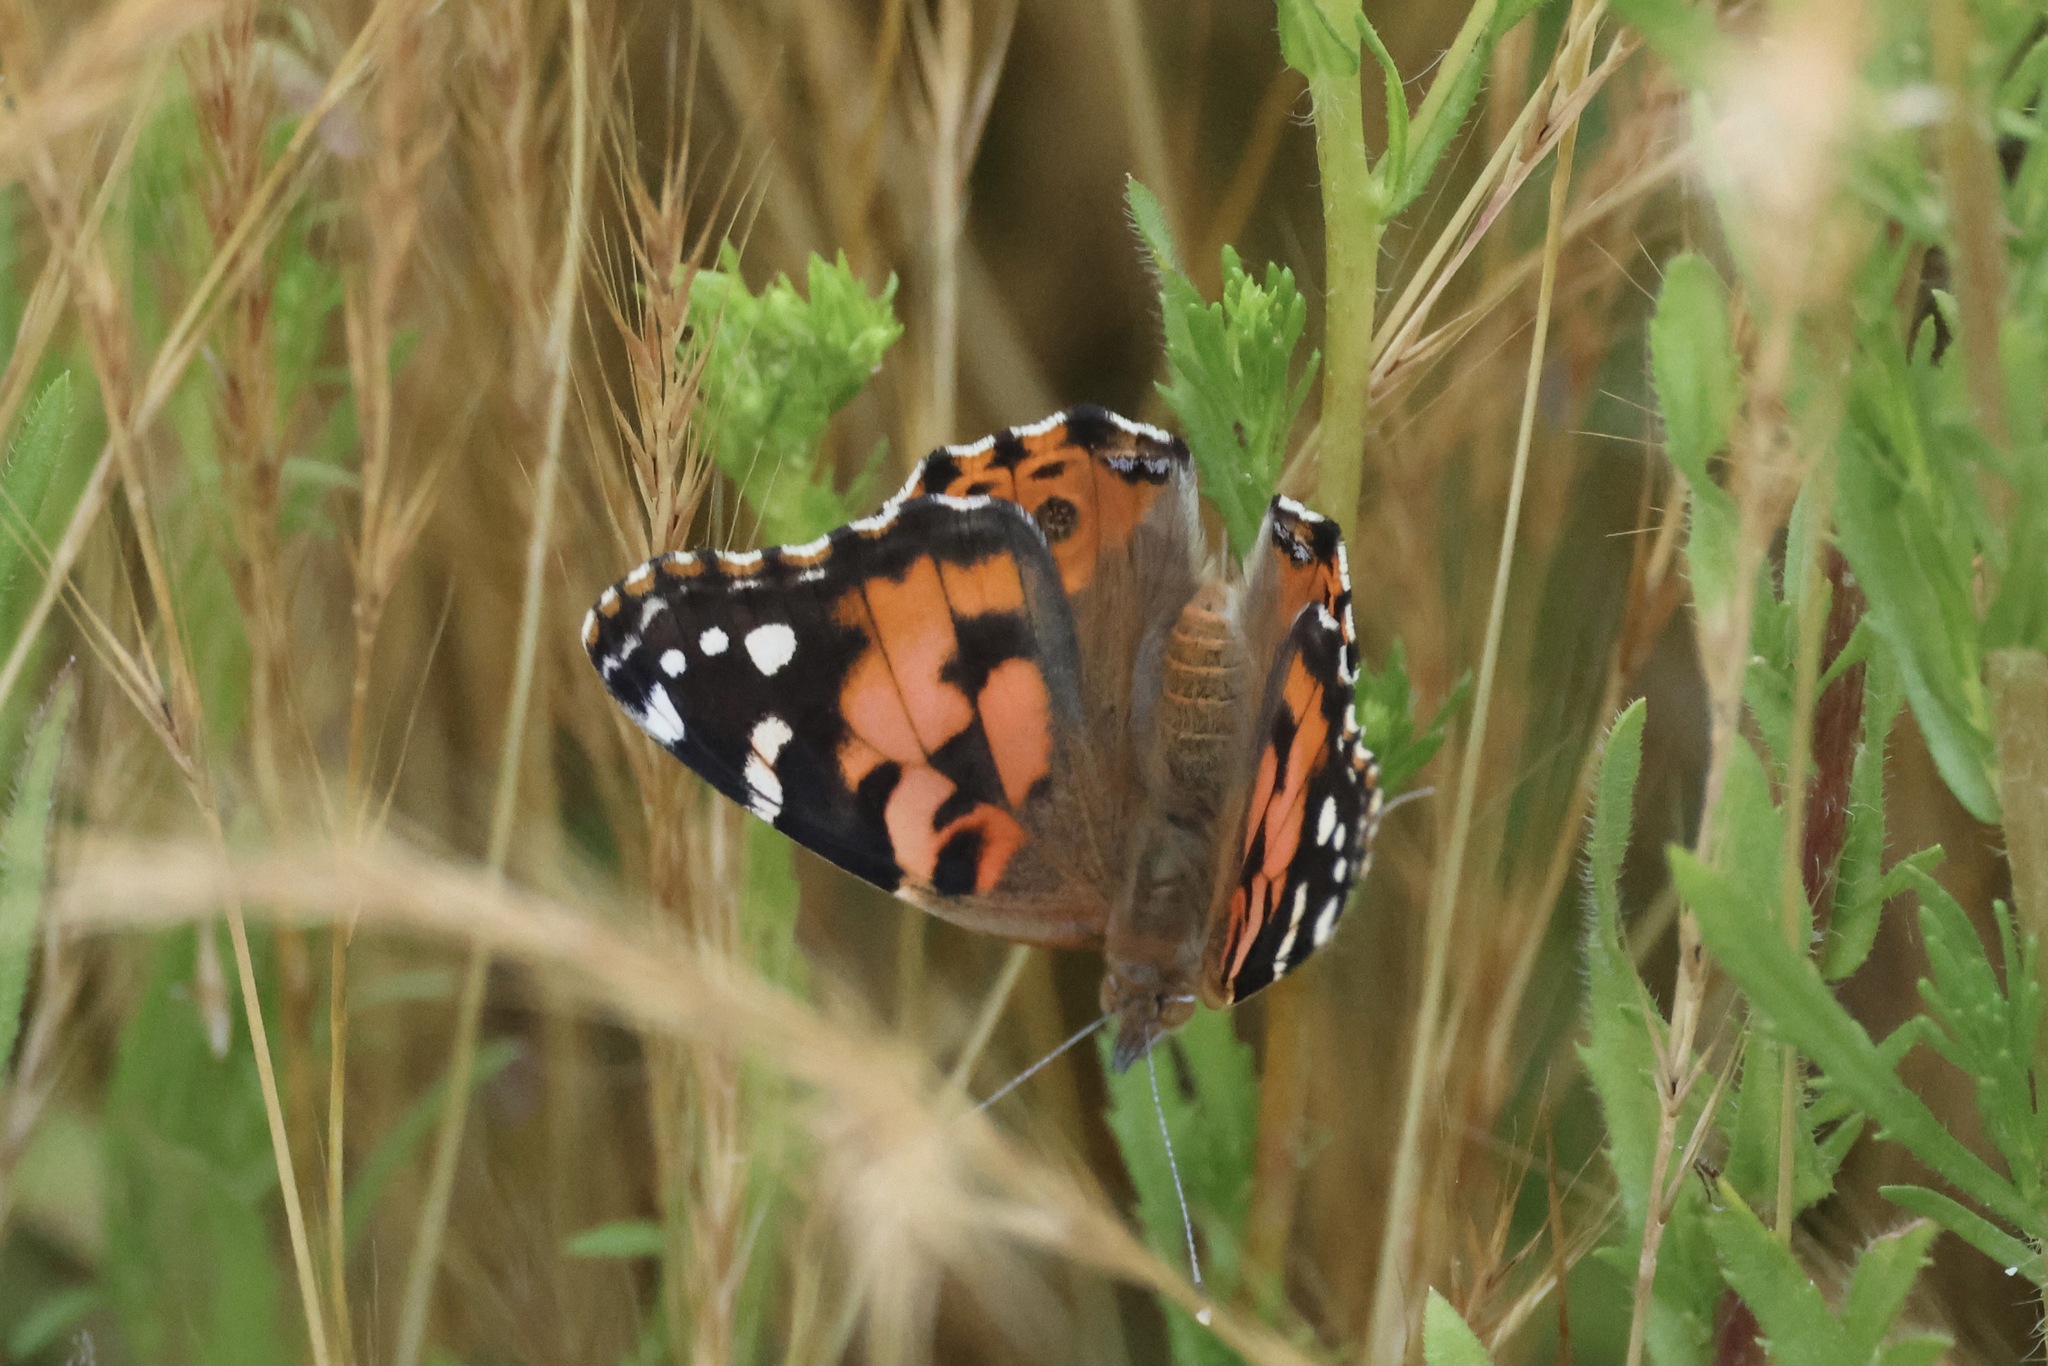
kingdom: Animalia
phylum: Arthropoda
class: Insecta
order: Lepidoptera
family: Nymphalidae
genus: Vanessa
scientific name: Vanessa cardui
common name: Painted lady
